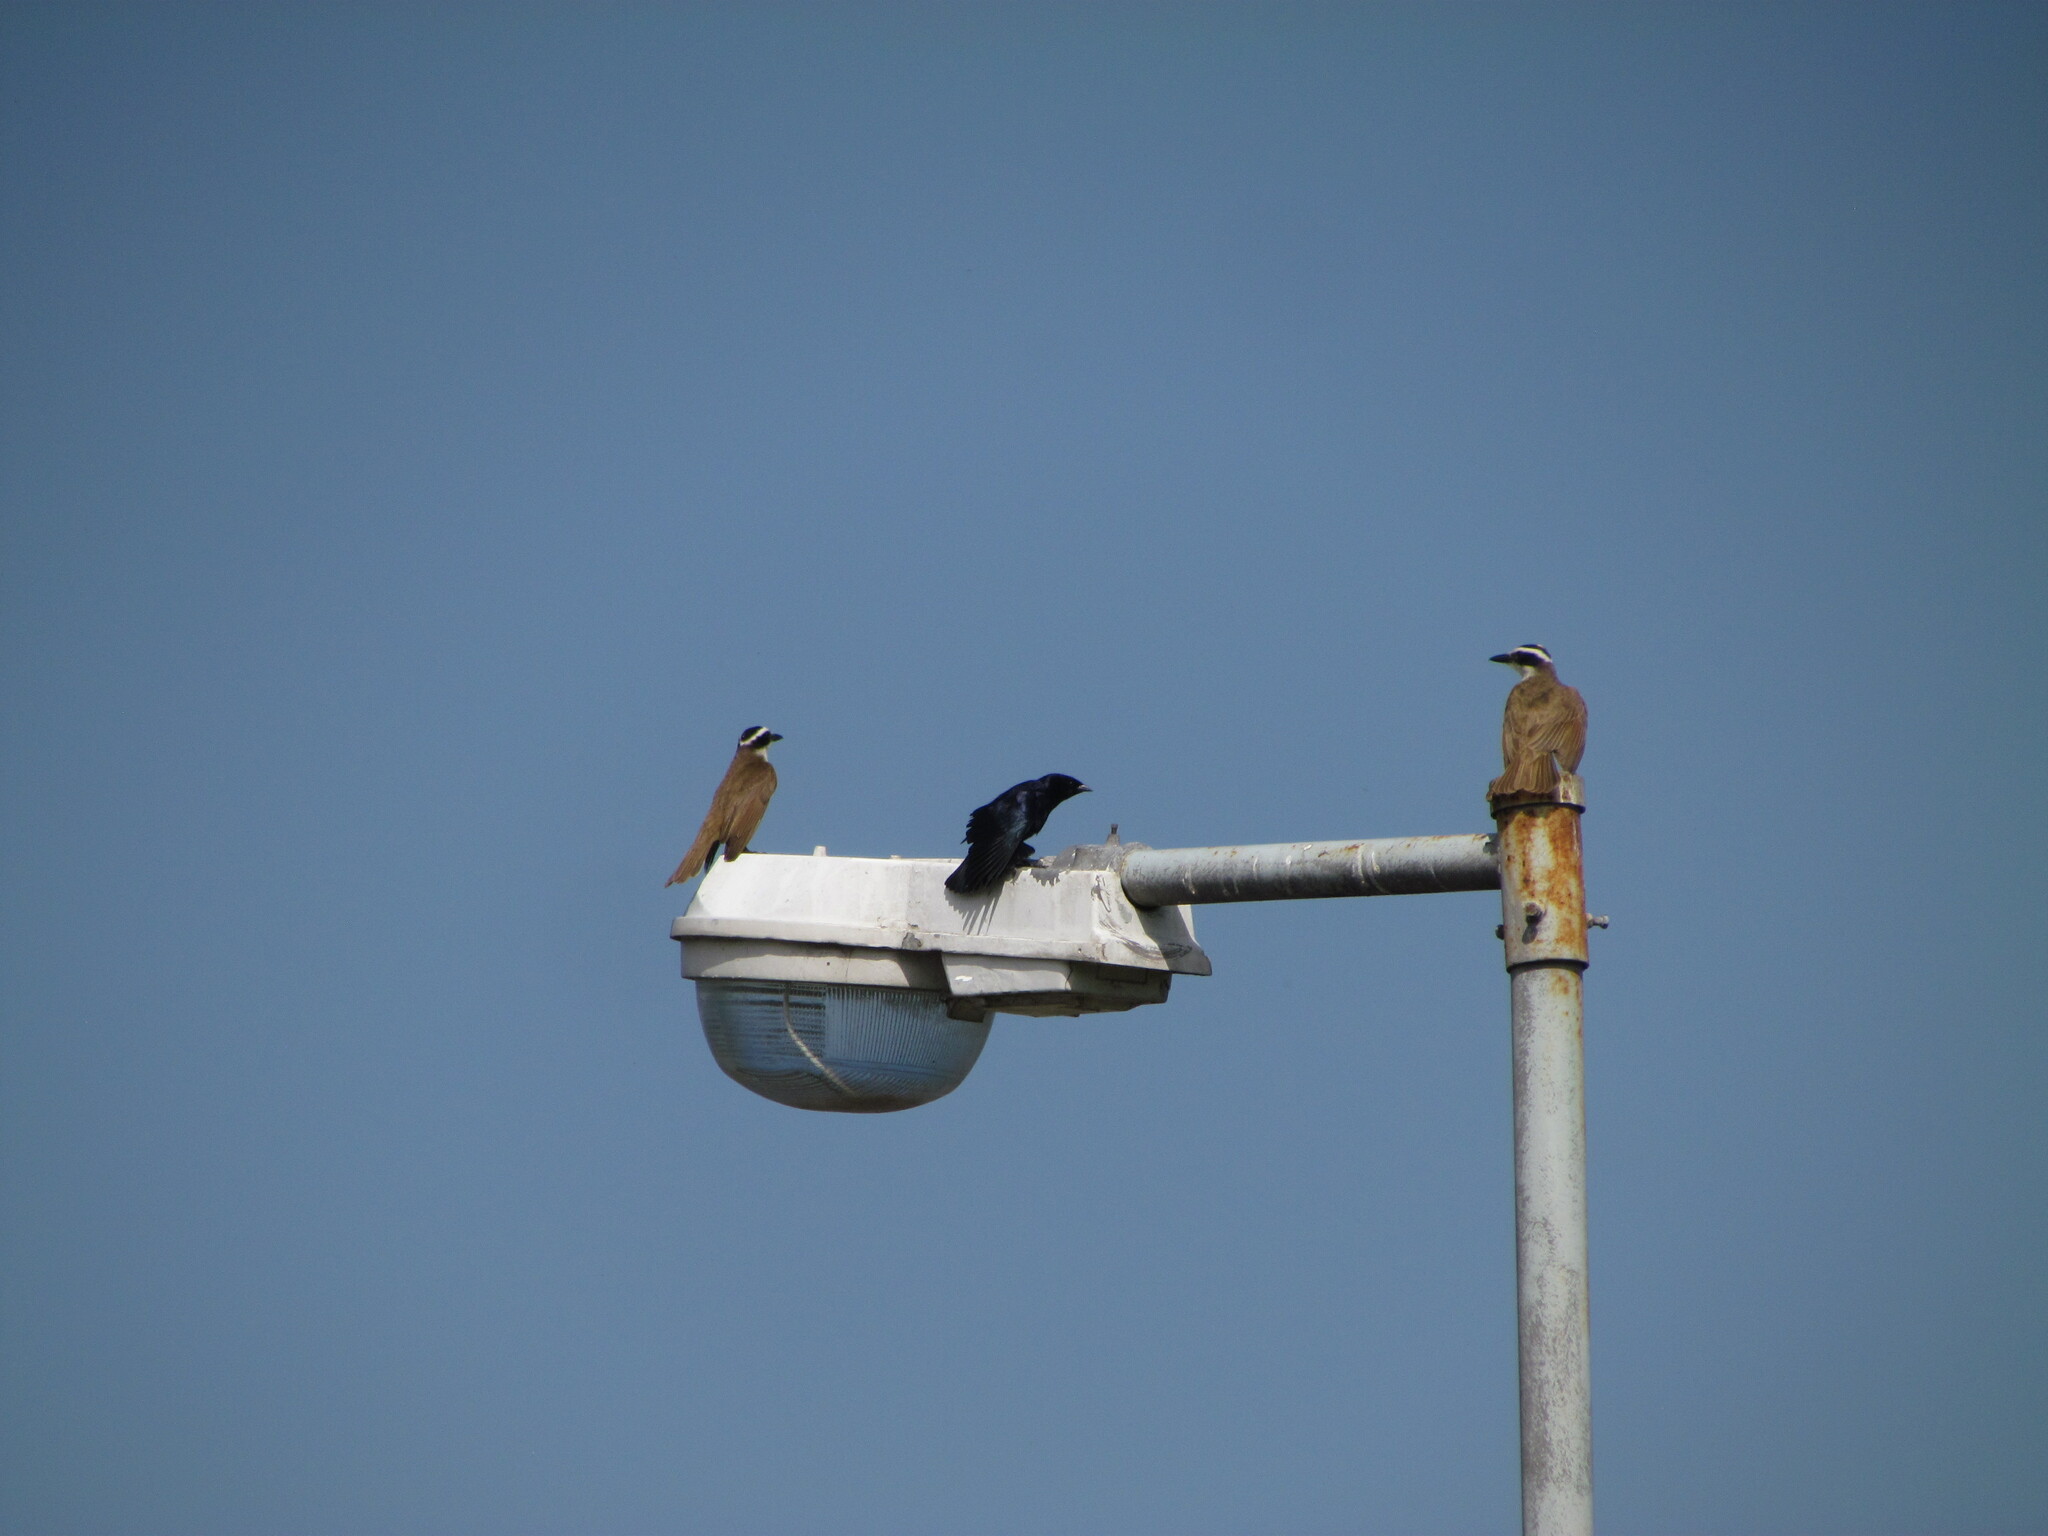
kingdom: Animalia
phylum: Chordata
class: Aves
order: Passeriformes
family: Icteridae
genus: Molothrus
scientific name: Molothrus bonariensis
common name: Shiny cowbird
